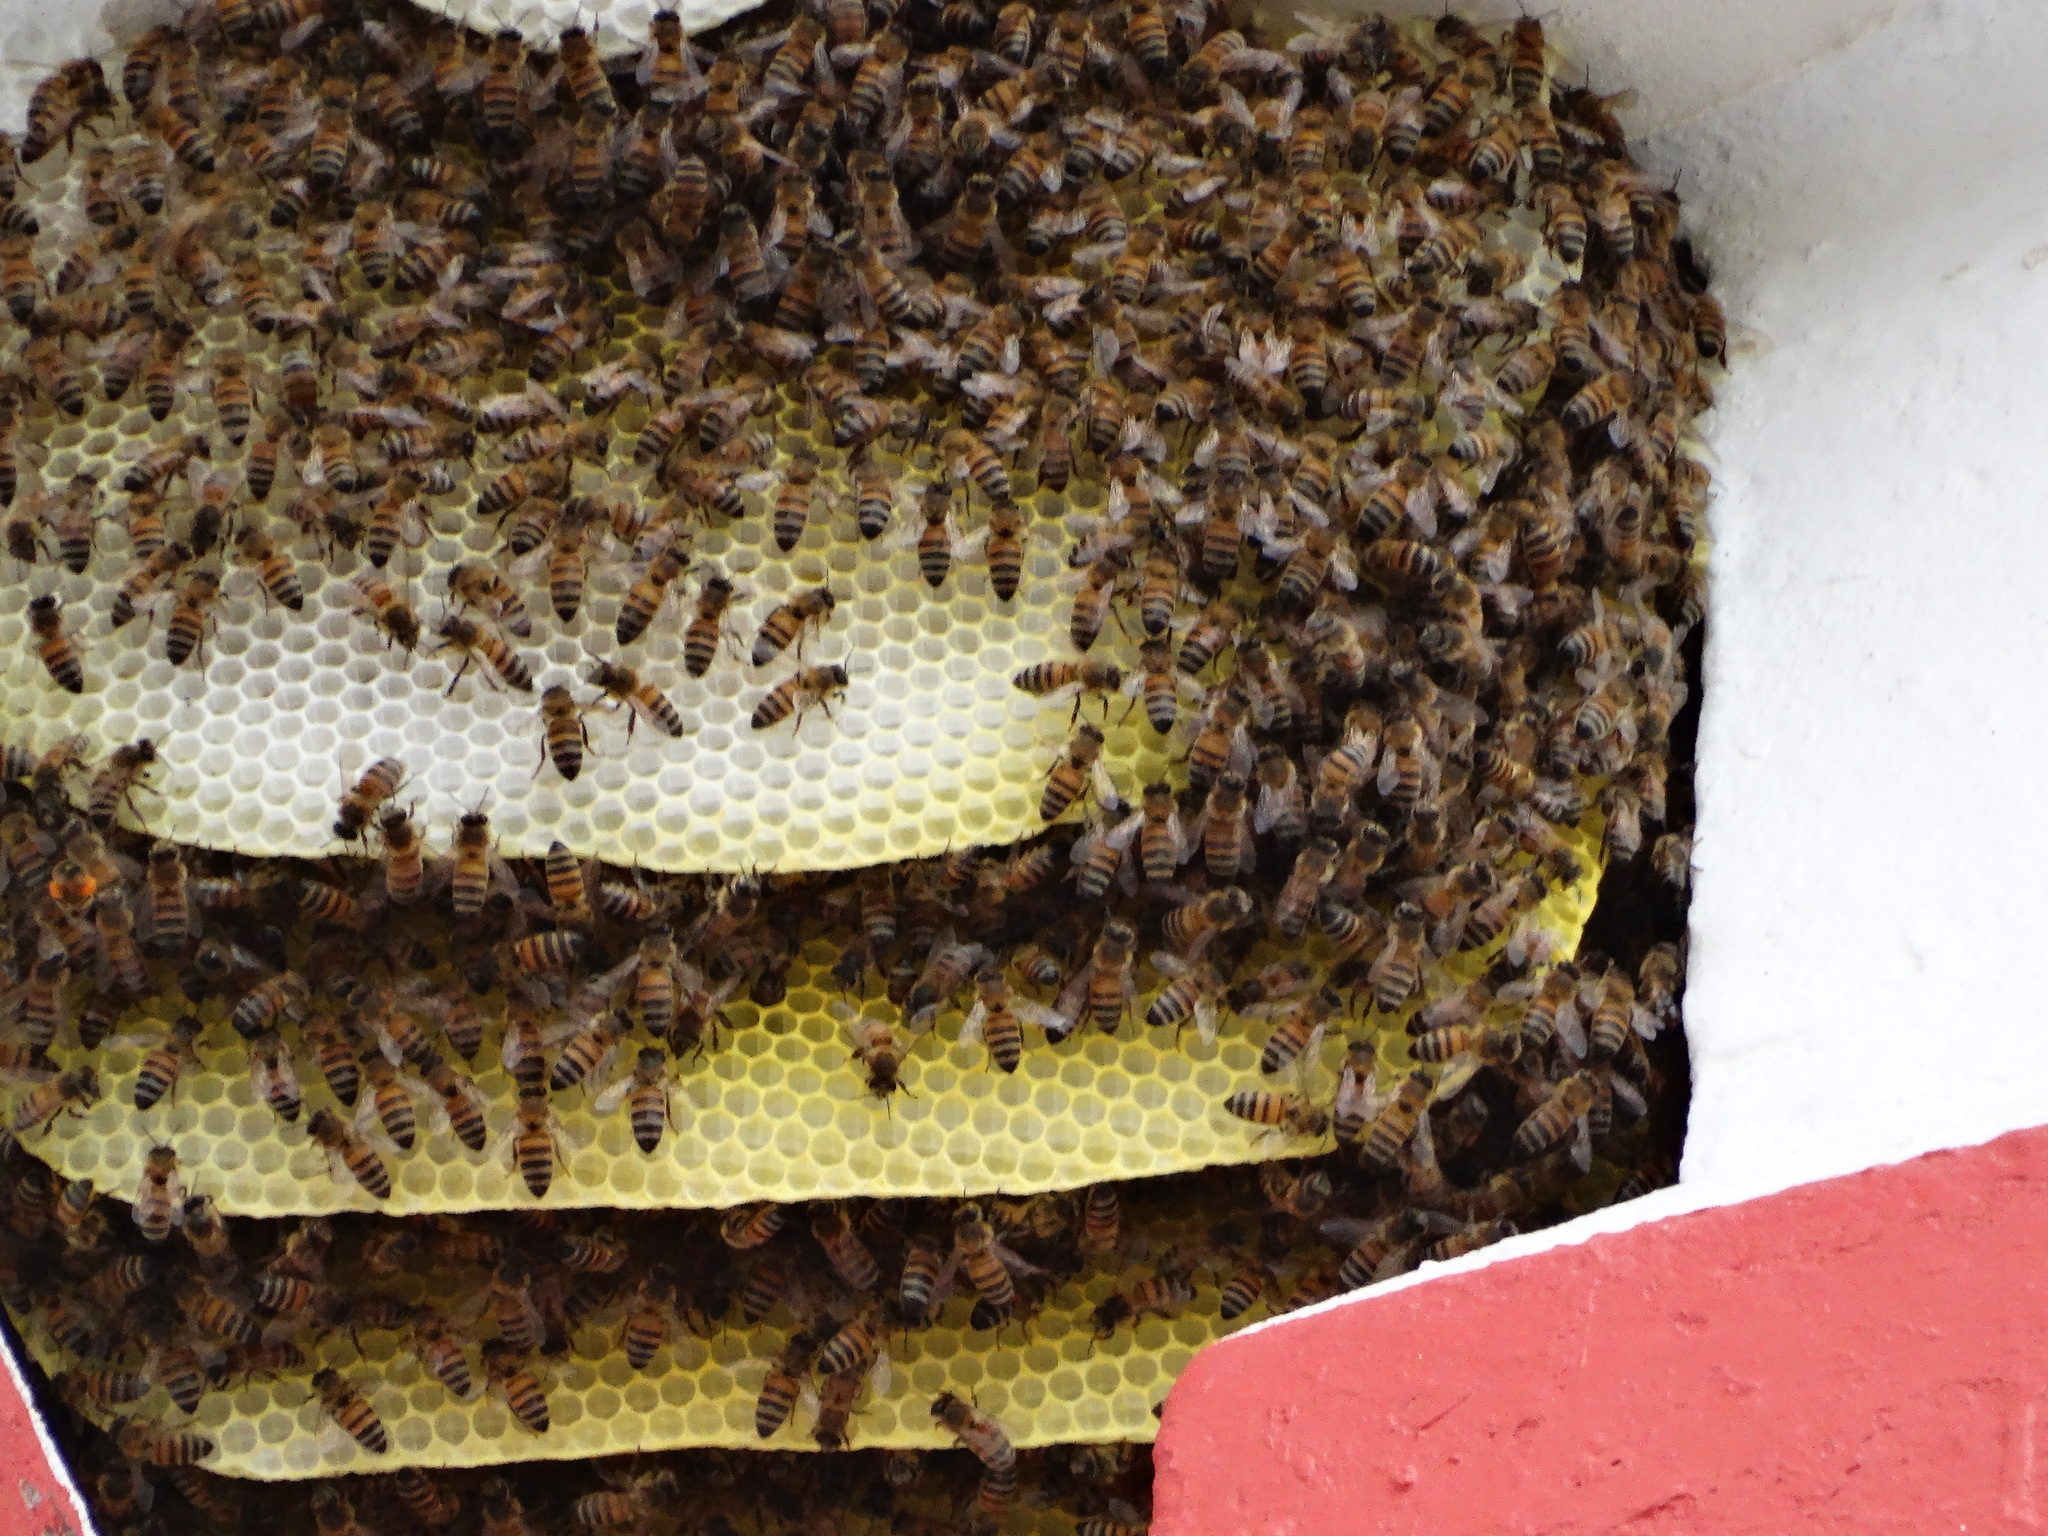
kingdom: Animalia
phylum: Arthropoda
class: Insecta
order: Hymenoptera
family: Apidae
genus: Apis
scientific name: Apis mellifera
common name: Honey bee
